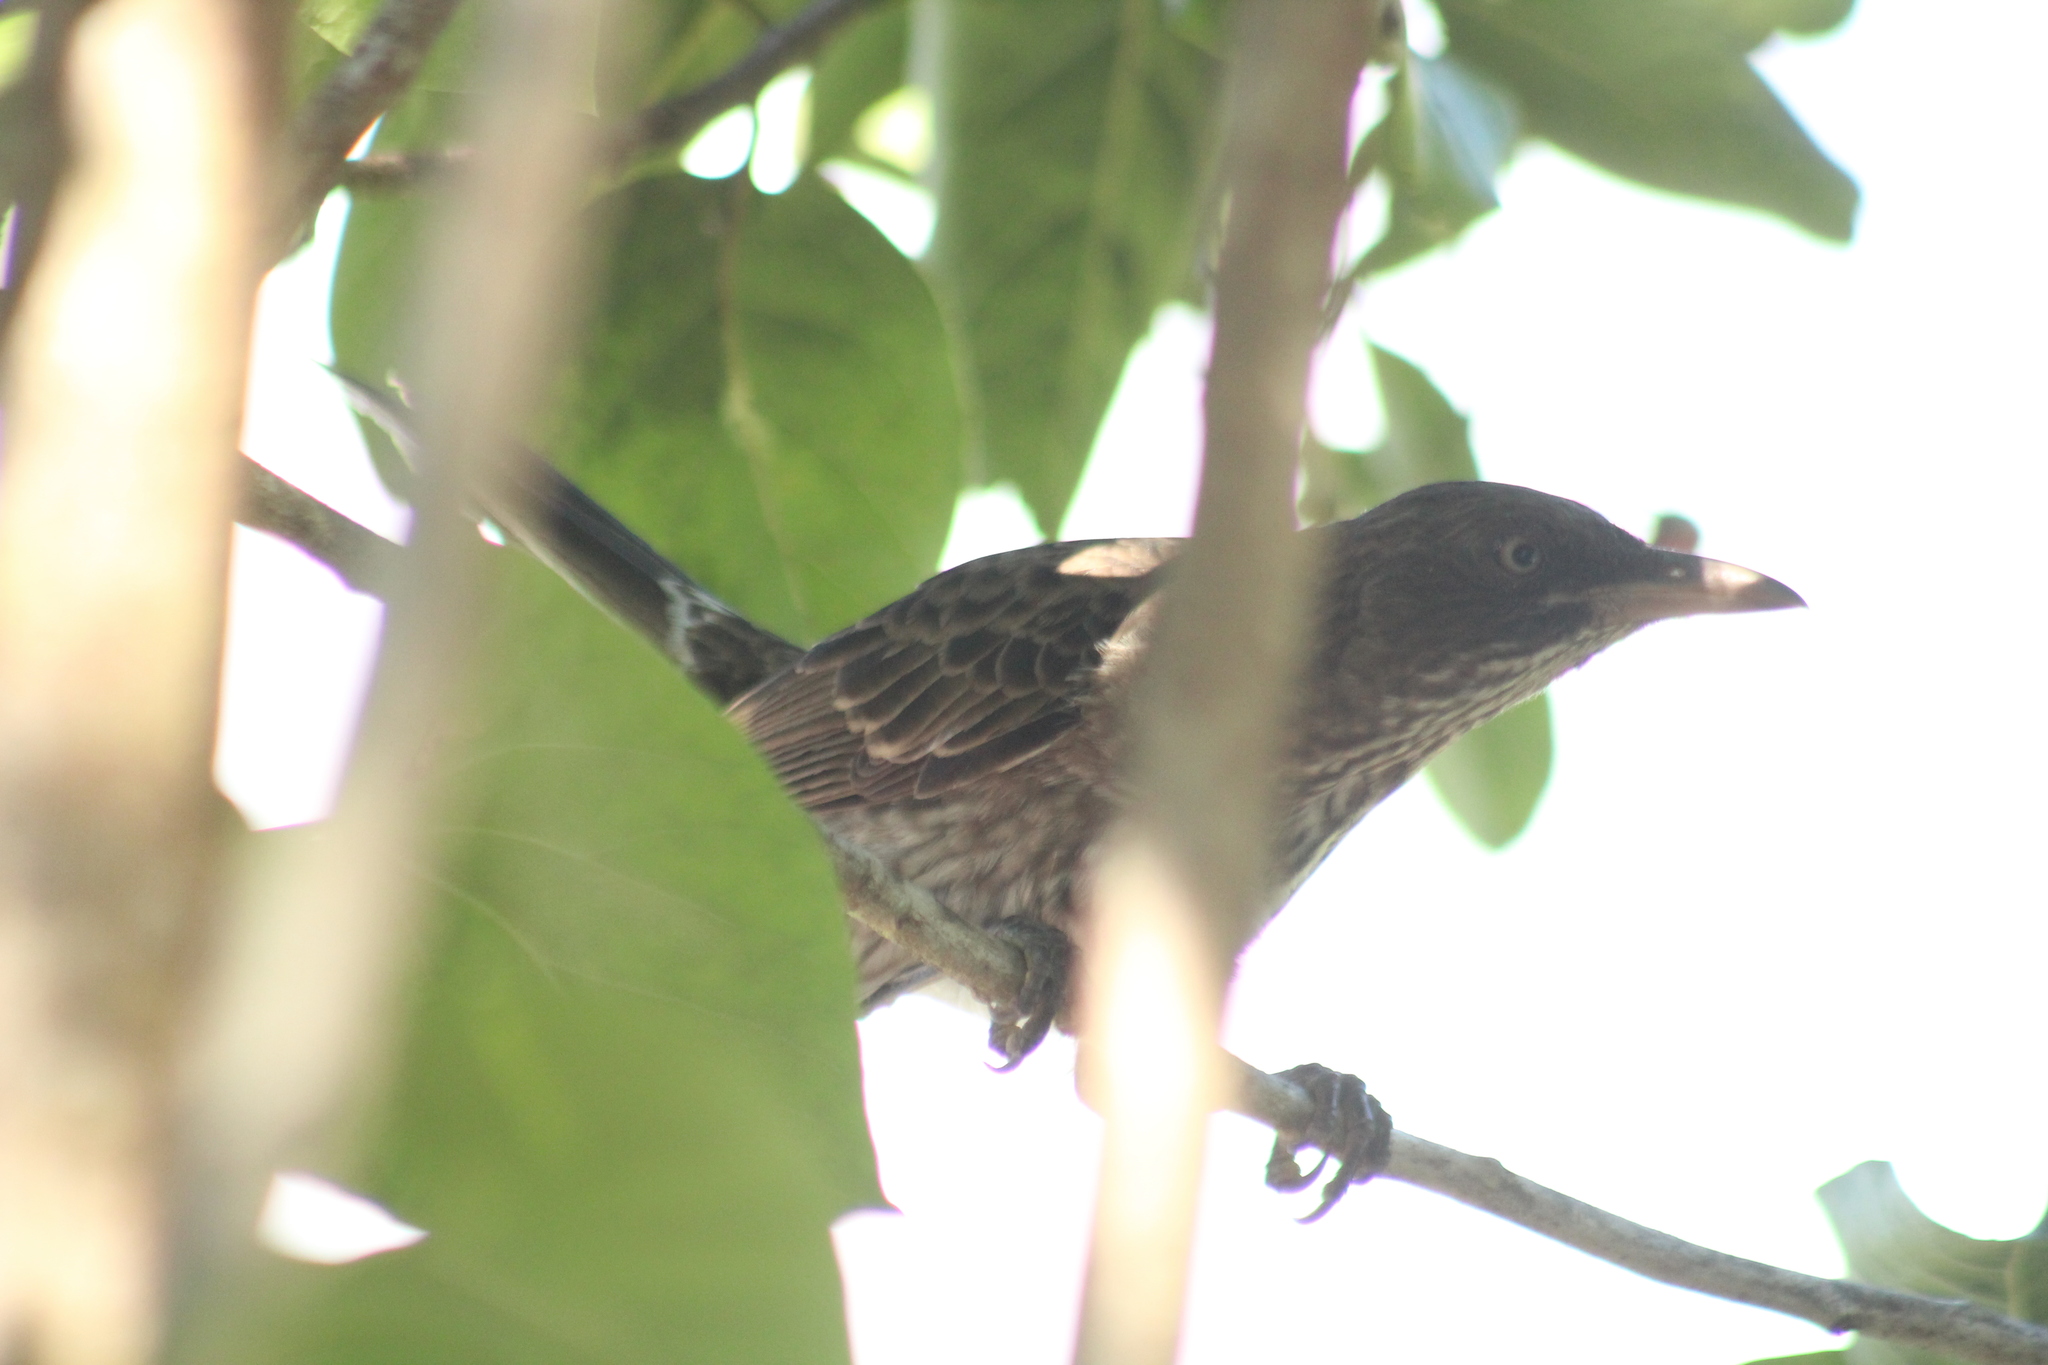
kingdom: Animalia
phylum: Chordata
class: Aves
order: Passeriformes
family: Mimidae
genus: Margarops
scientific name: Margarops fuscatus
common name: Pearly-eyed thrasher
